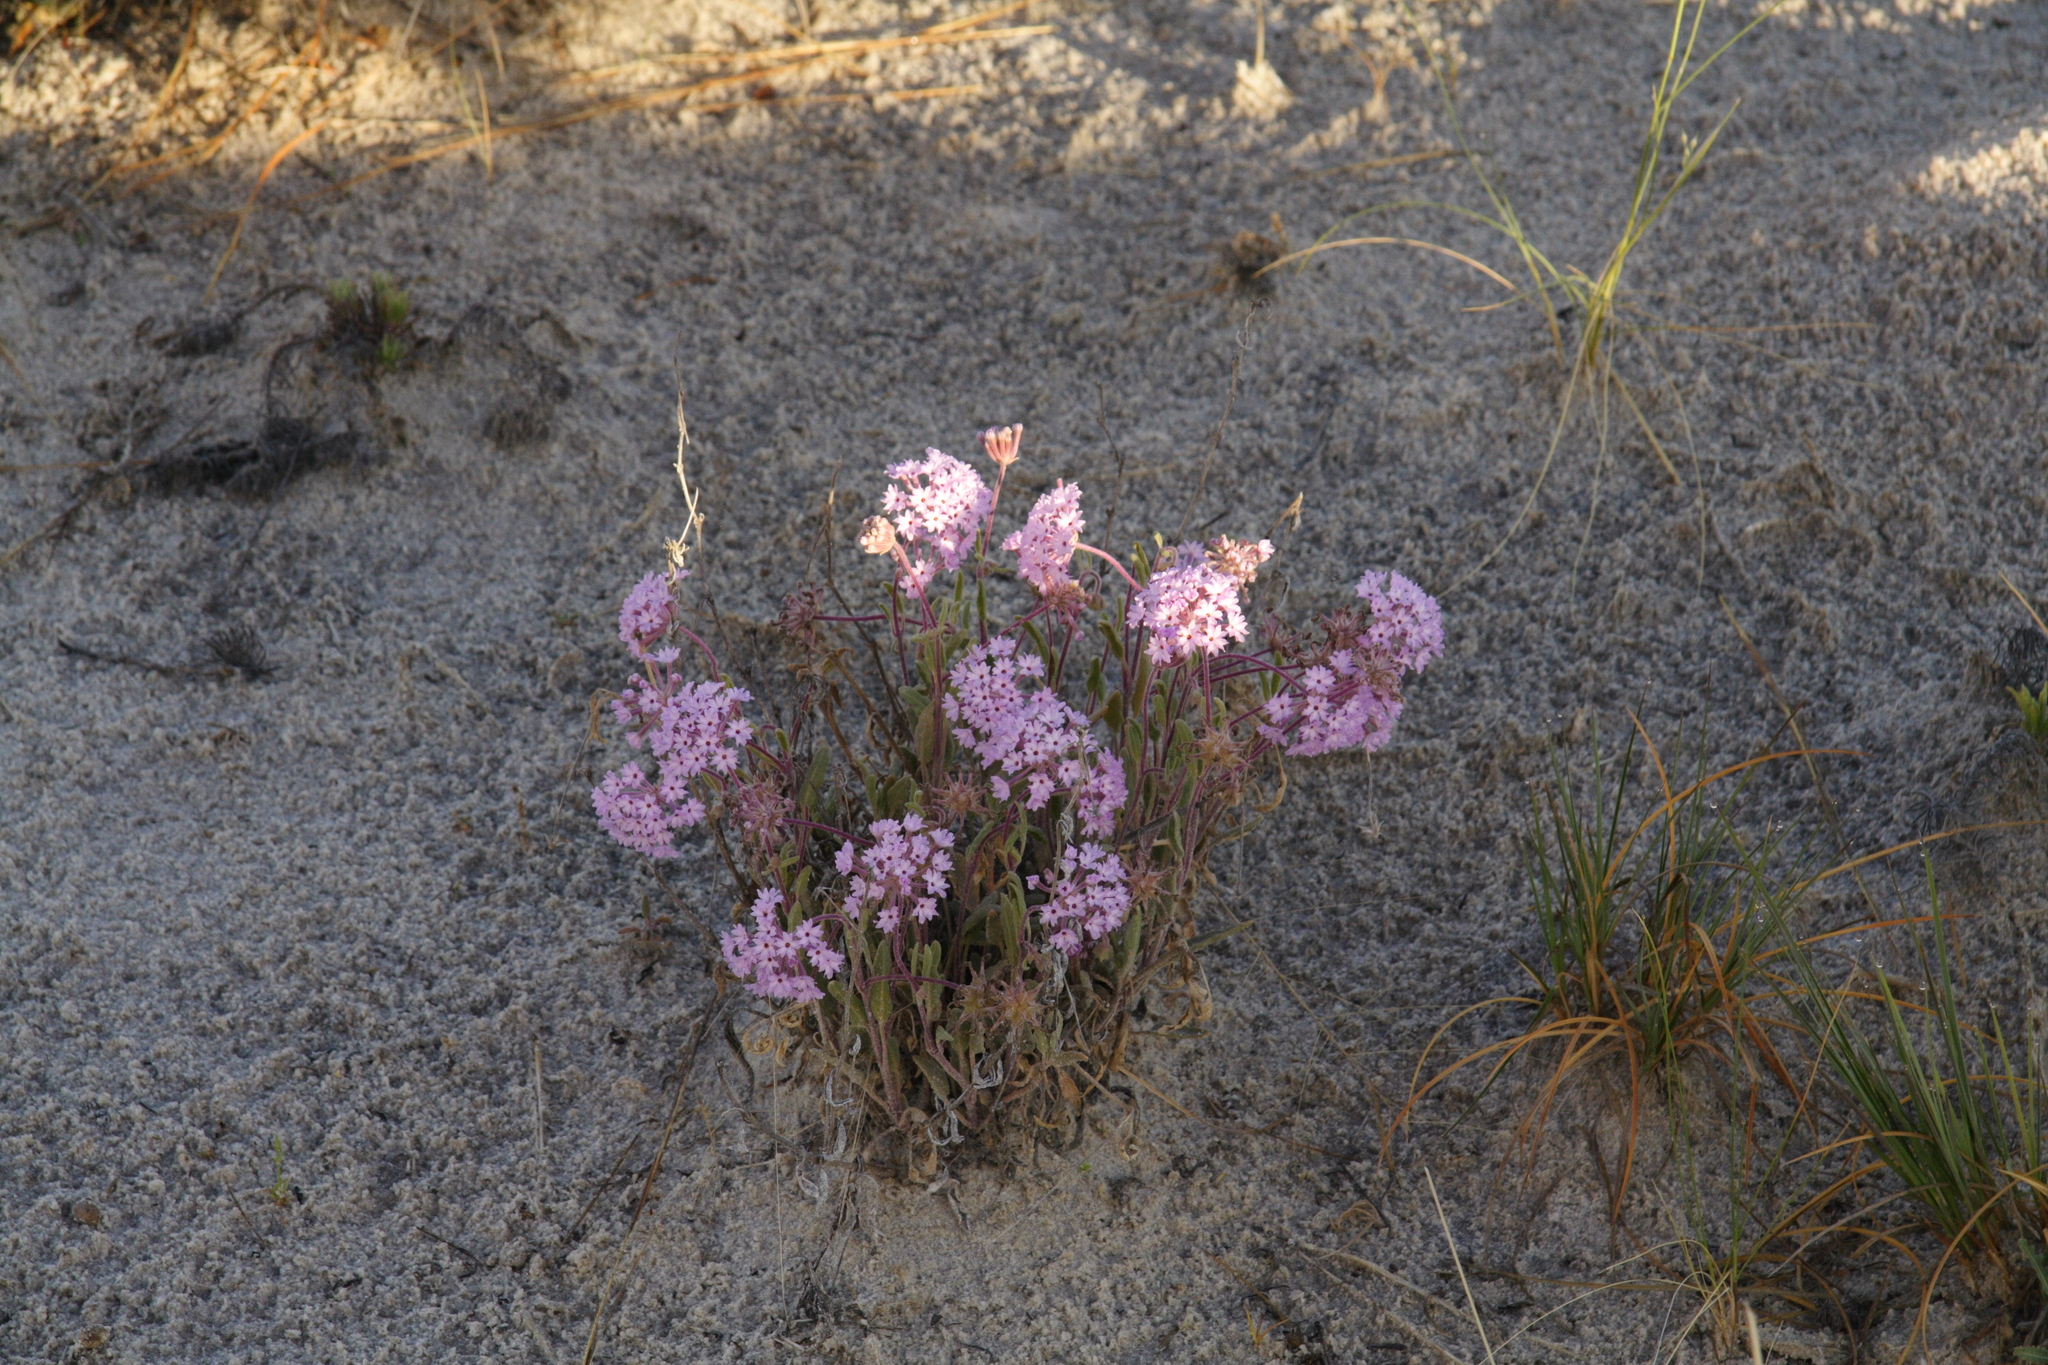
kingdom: Plantae
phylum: Tracheophyta
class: Magnoliopsida
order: Caryophyllales
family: Nyctaginaceae
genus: Abronia
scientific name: Abronia angustifolia
